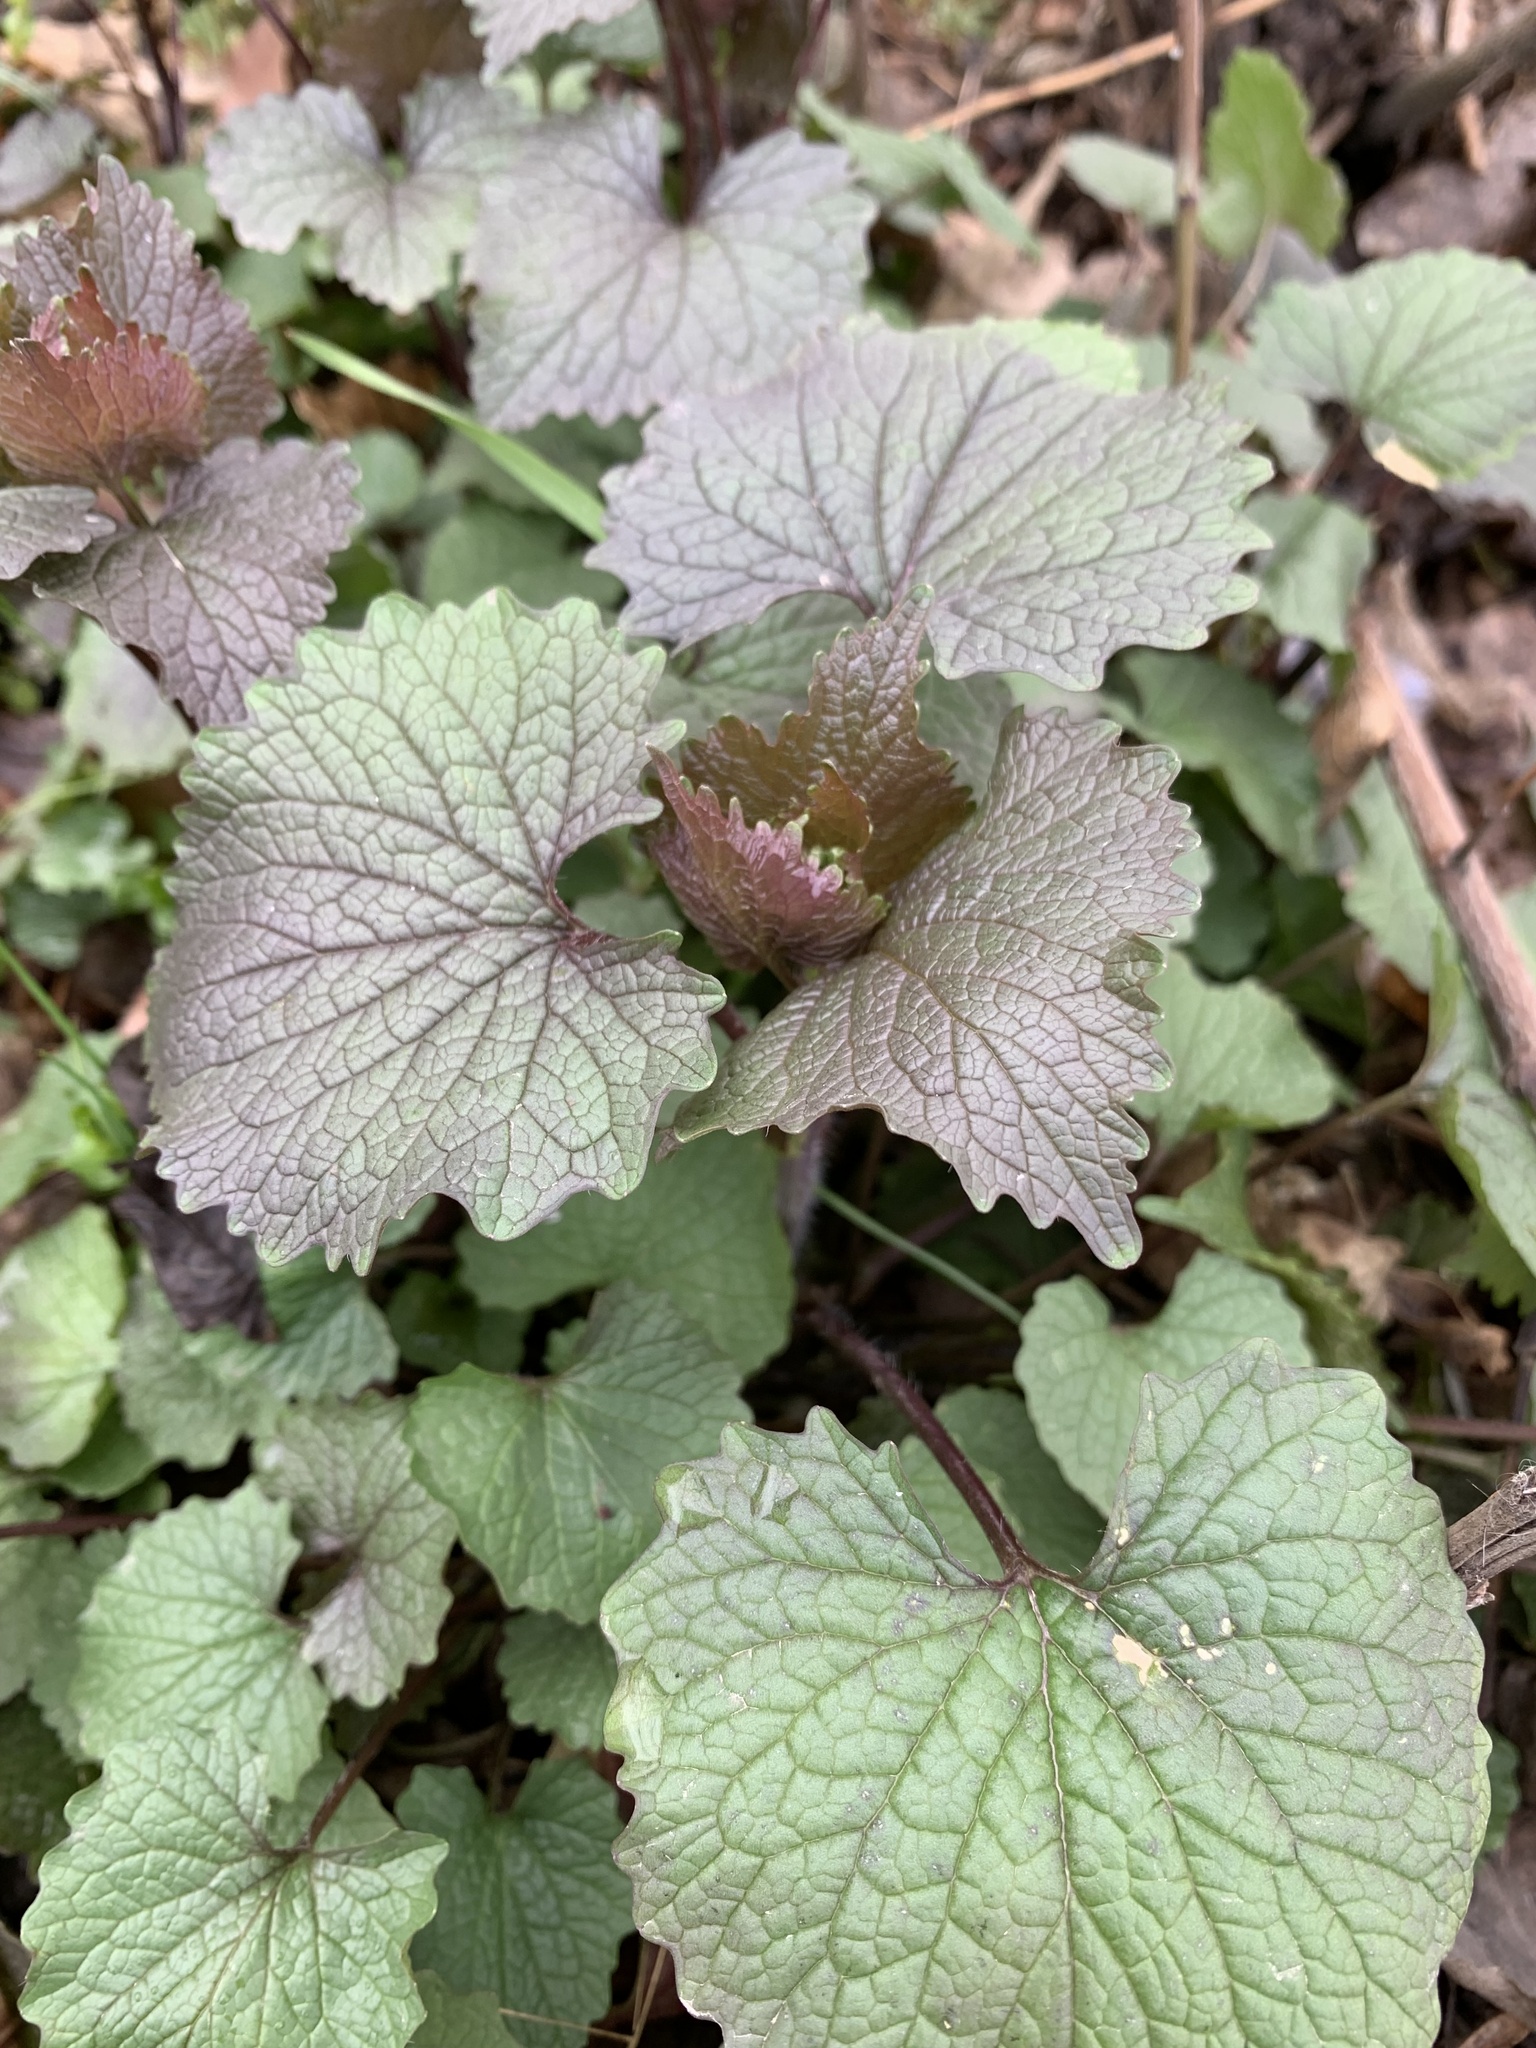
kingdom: Plantae
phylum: Tracheophyta
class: Magnoliopsida
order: Brassicales
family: Brassicaceae
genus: Alliaria
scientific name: Alliaria petiolata
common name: Garlic mustard
